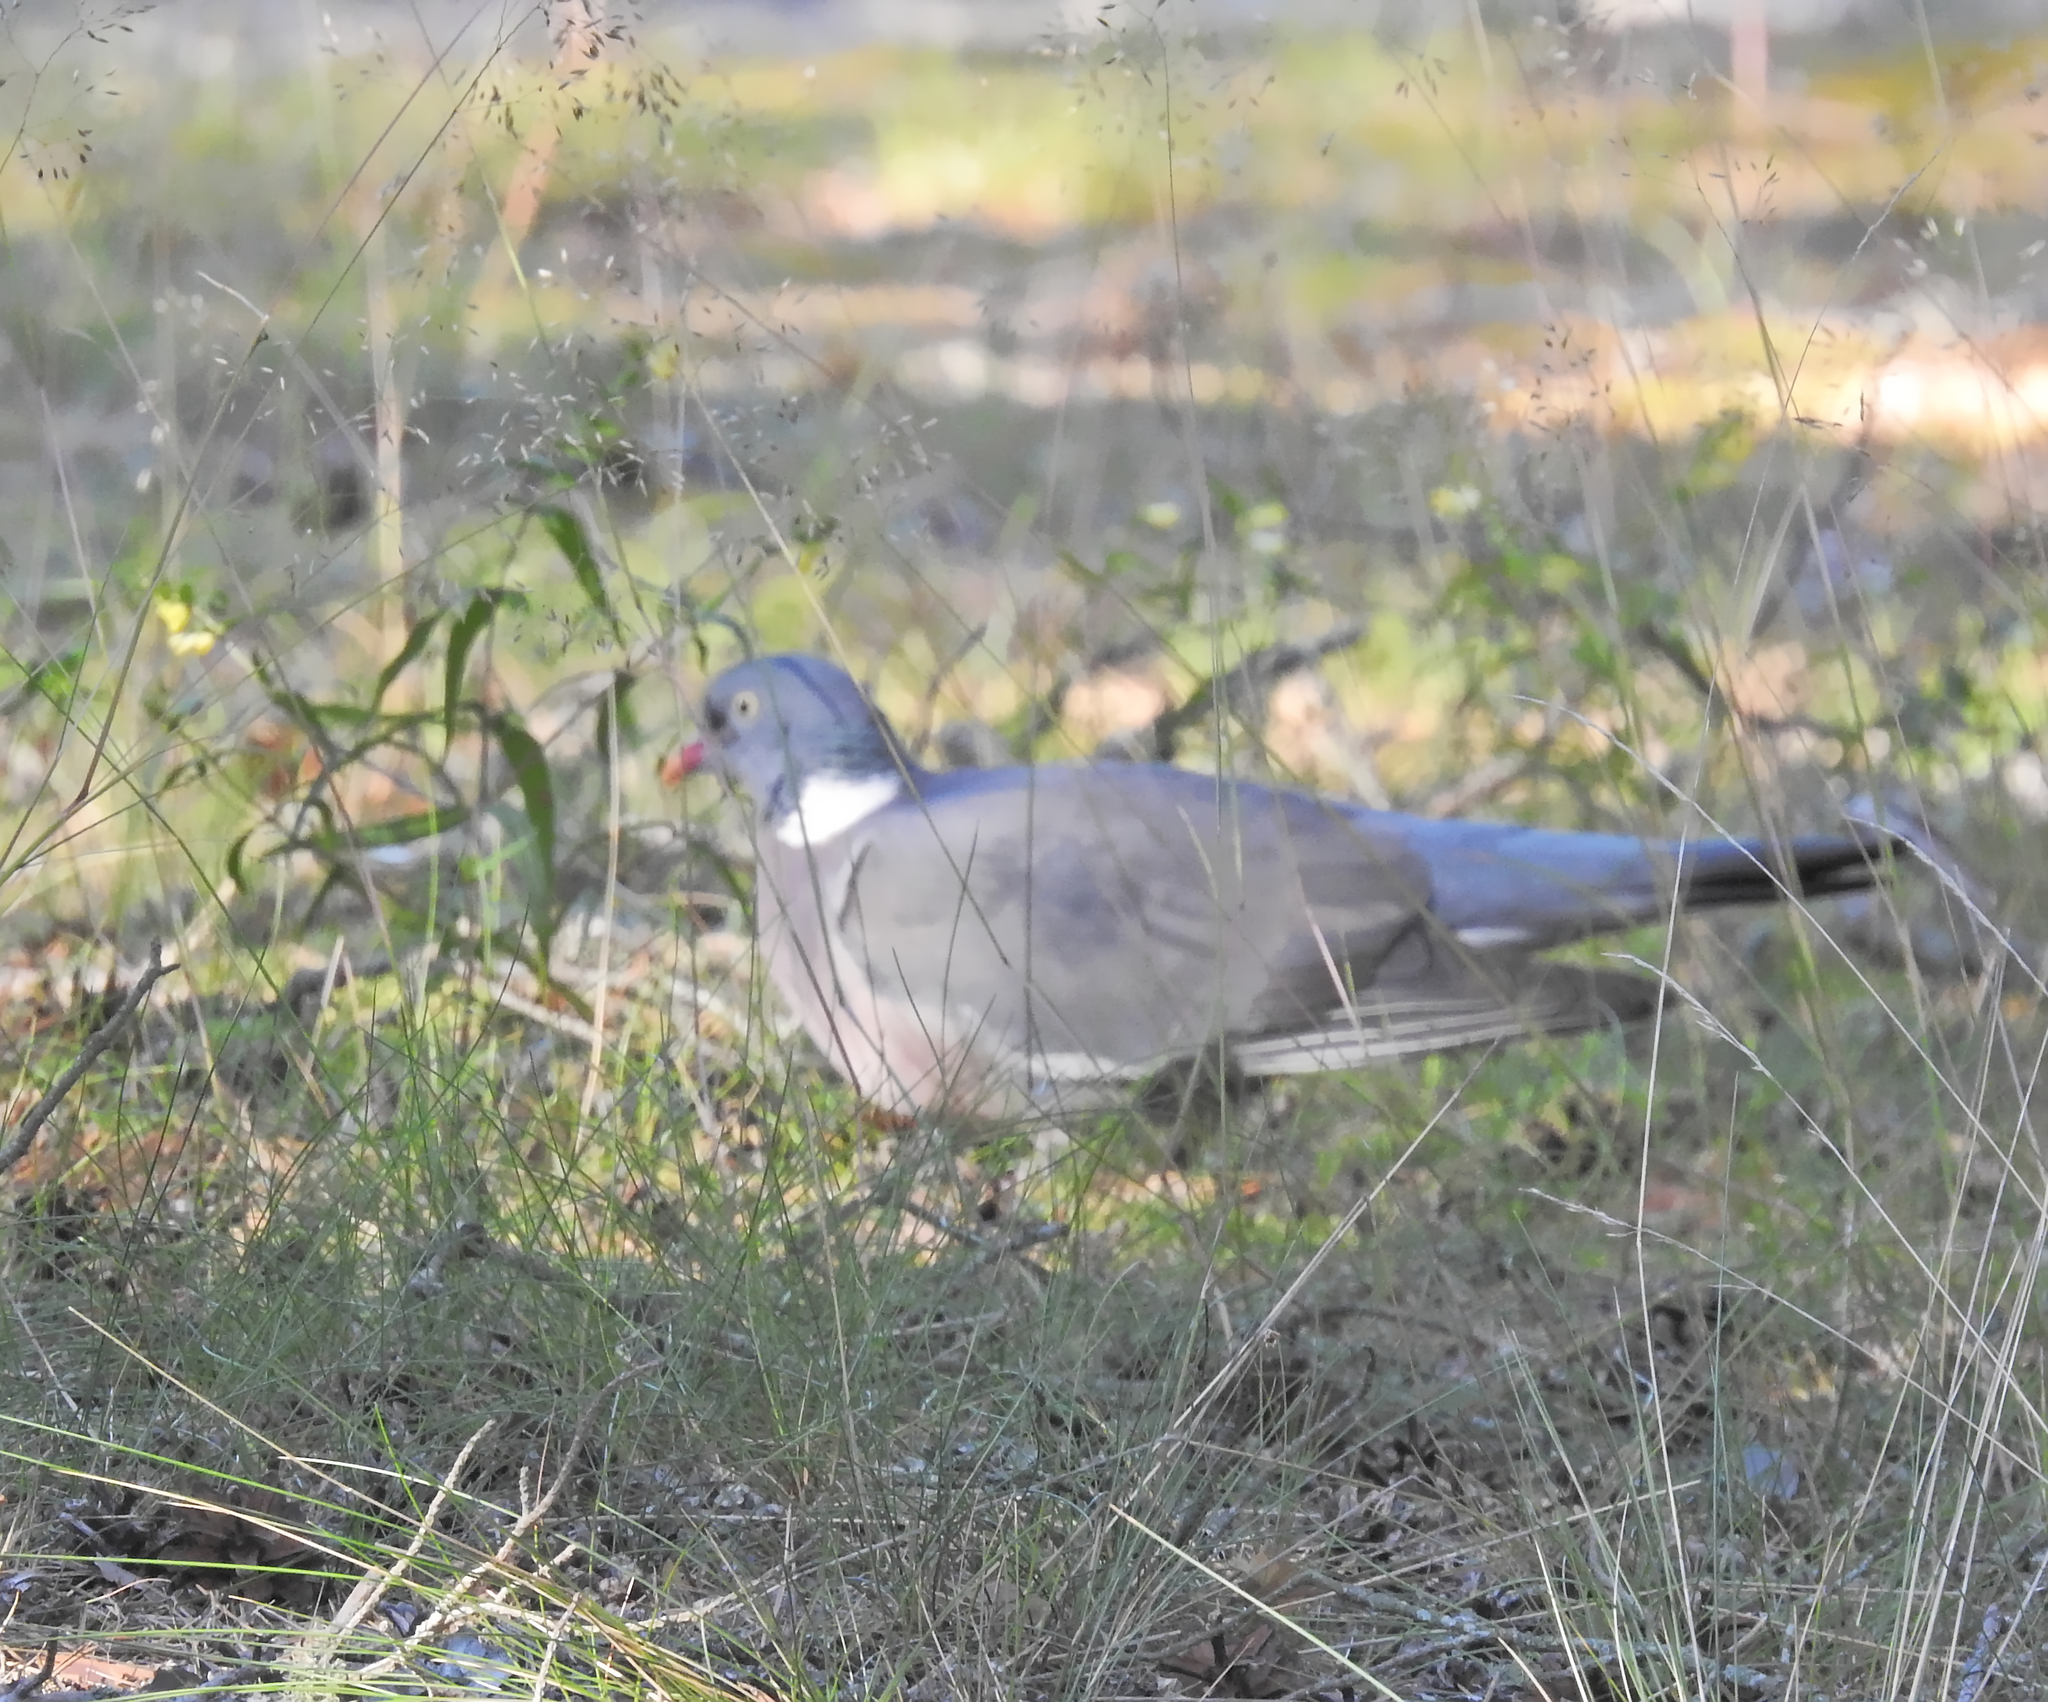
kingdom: Animalia
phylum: Chordata
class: Aves
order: Columbiformes
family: Columbidae
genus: Columba
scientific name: Columba palumbus
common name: Common wood pigeon
